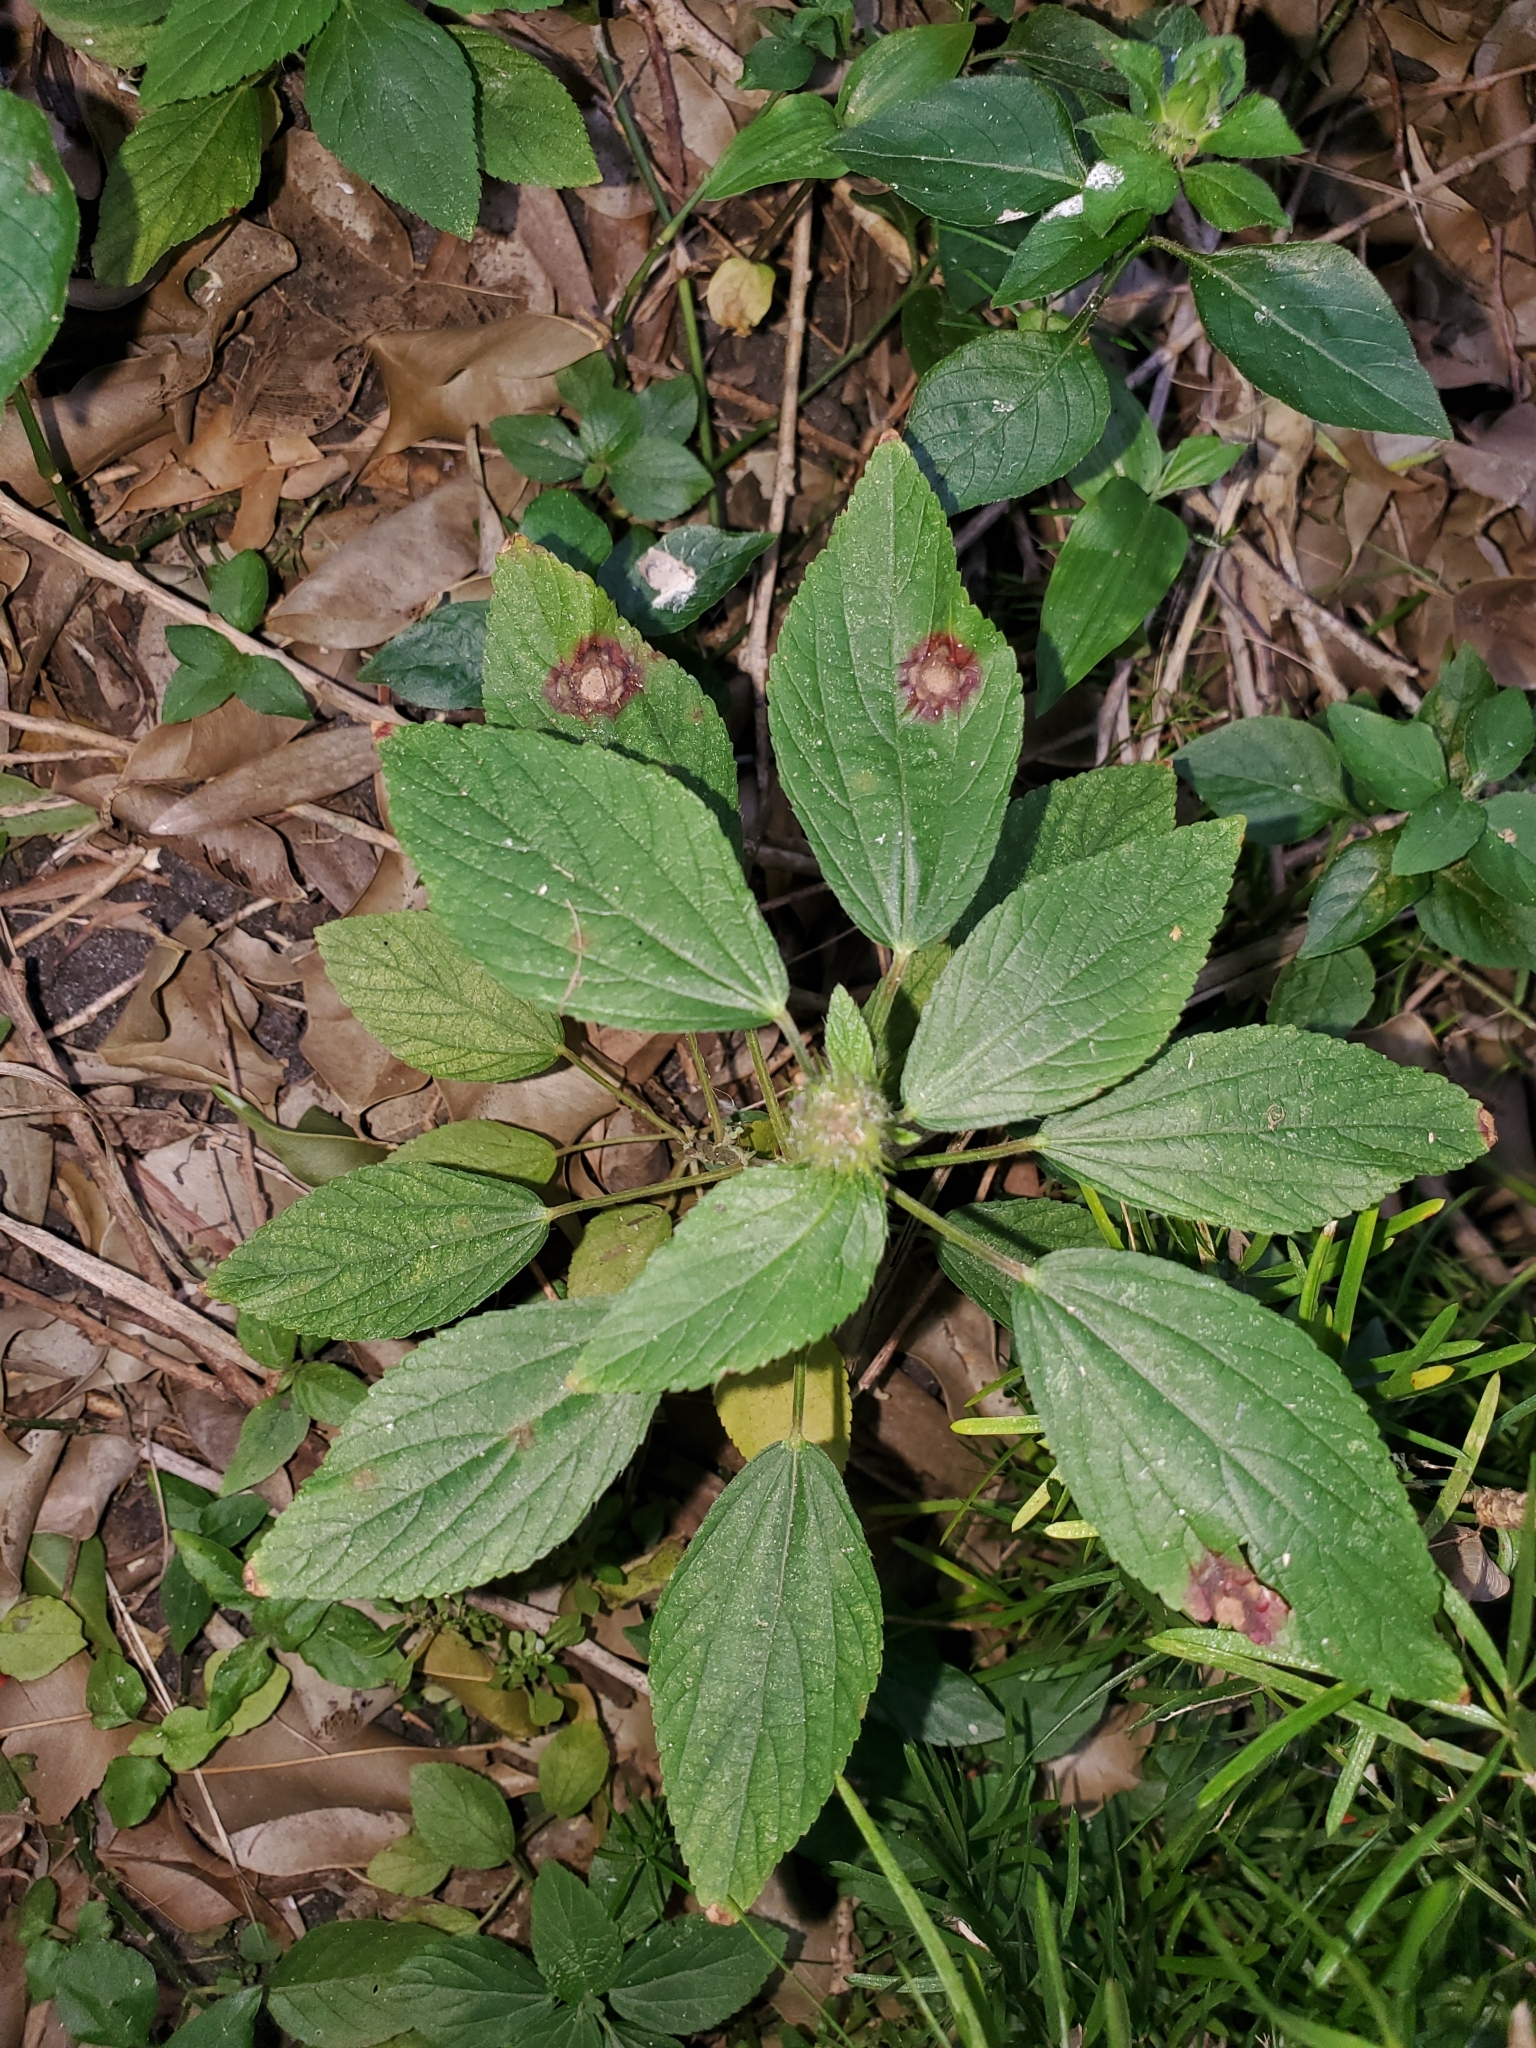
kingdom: Plantae
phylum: Tracheophyta
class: Magnoliopsida
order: Malpighiales
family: Euphorbiaceae
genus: Acalypha
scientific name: Acalypha arvensis
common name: Field copperleaf
